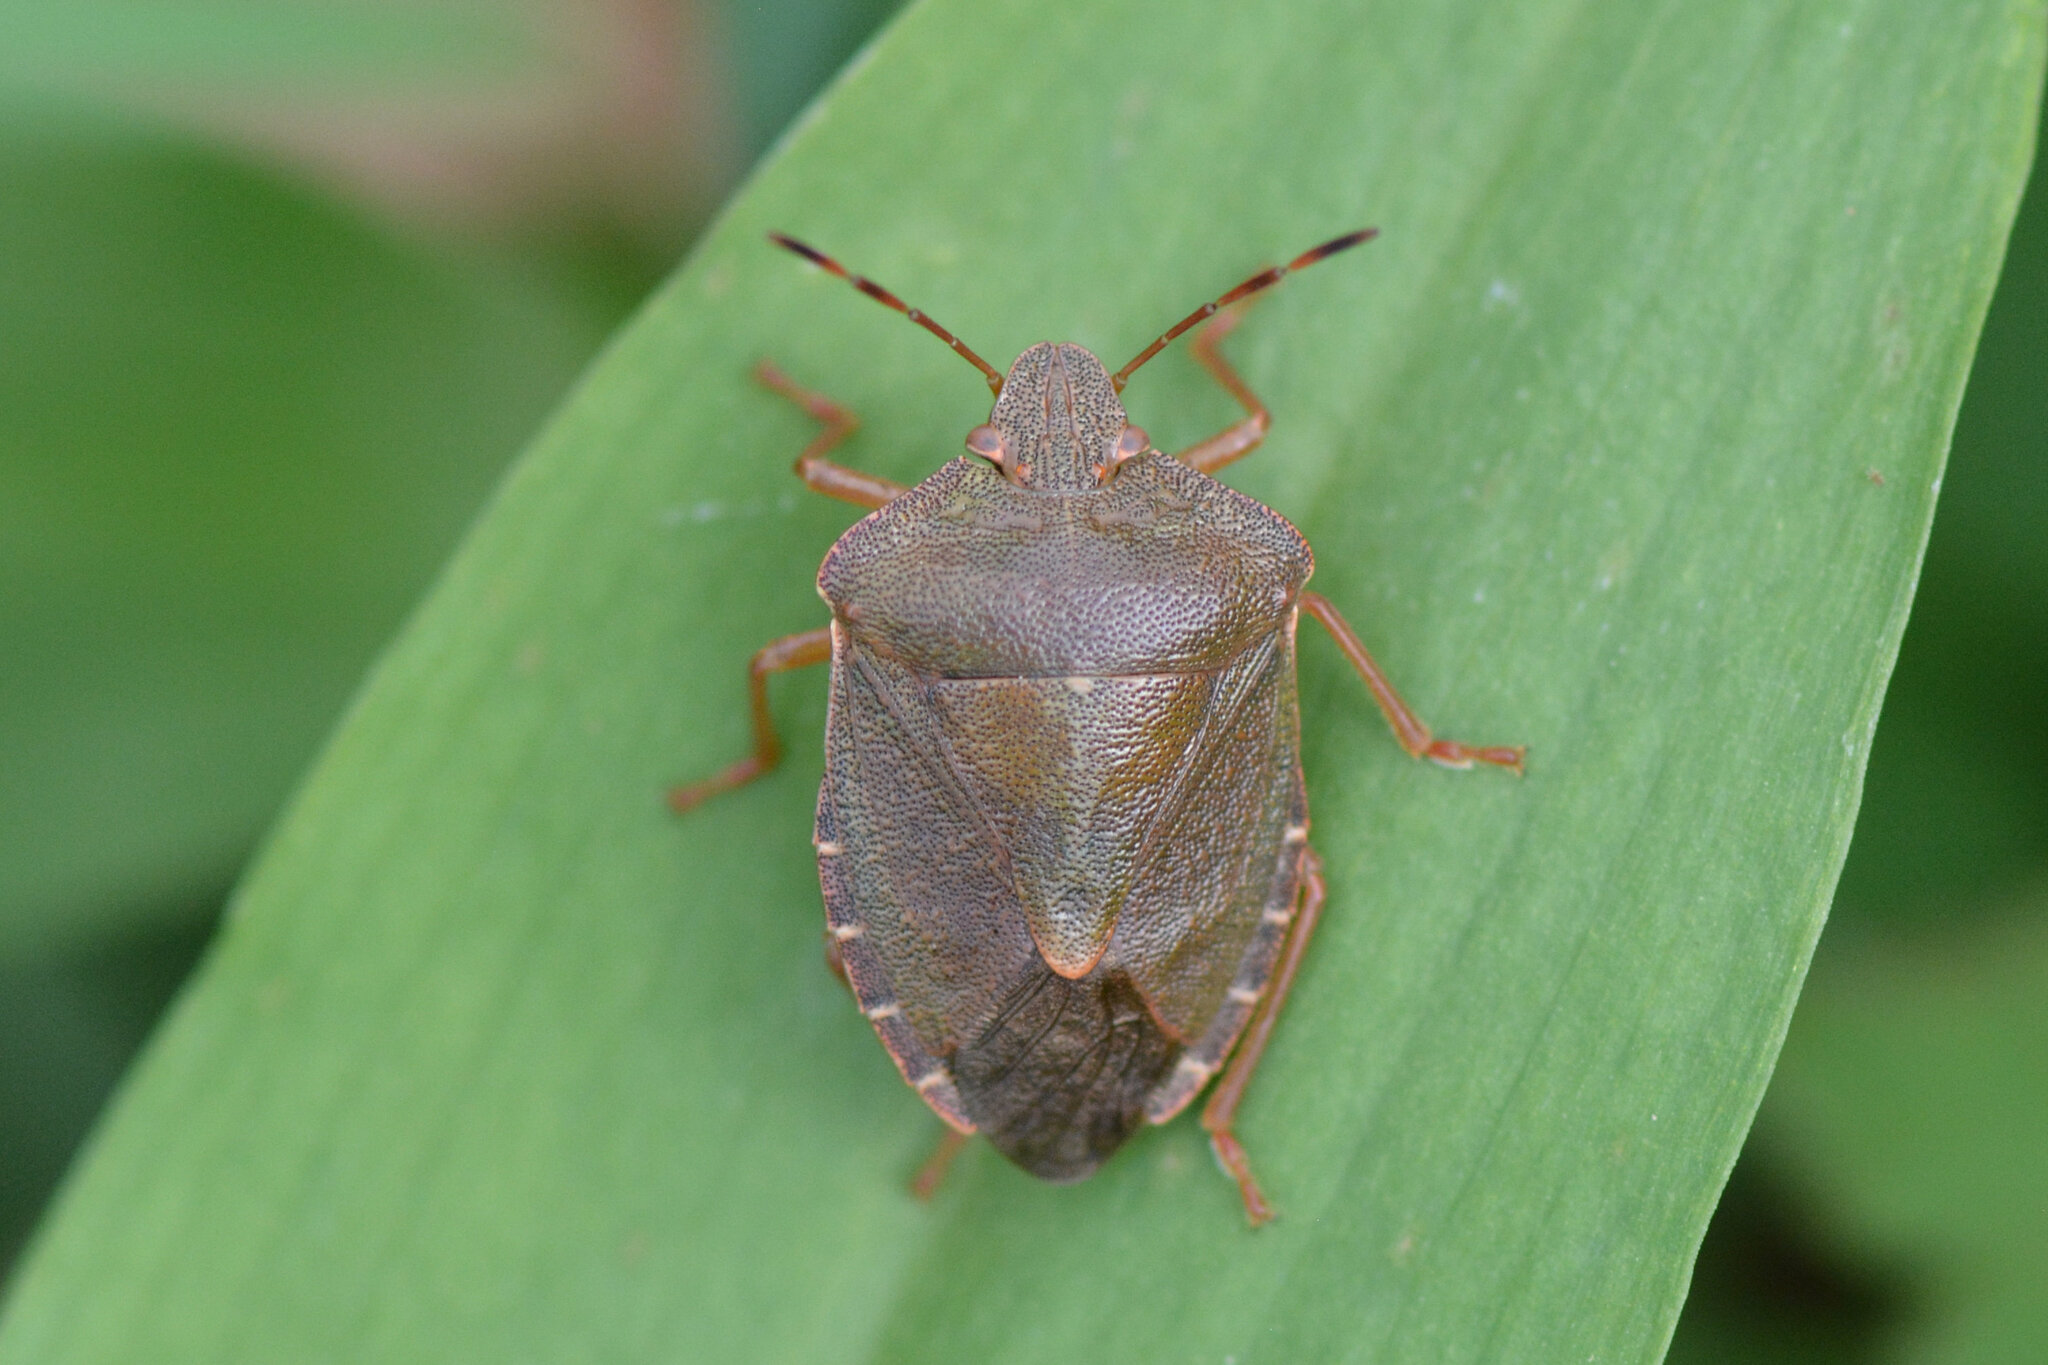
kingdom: Animalia
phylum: Arthropoda
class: Insecta
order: Hemiptera
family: Pentatomidae
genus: Palomena
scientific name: Palomena prasina
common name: Green shieldbug
